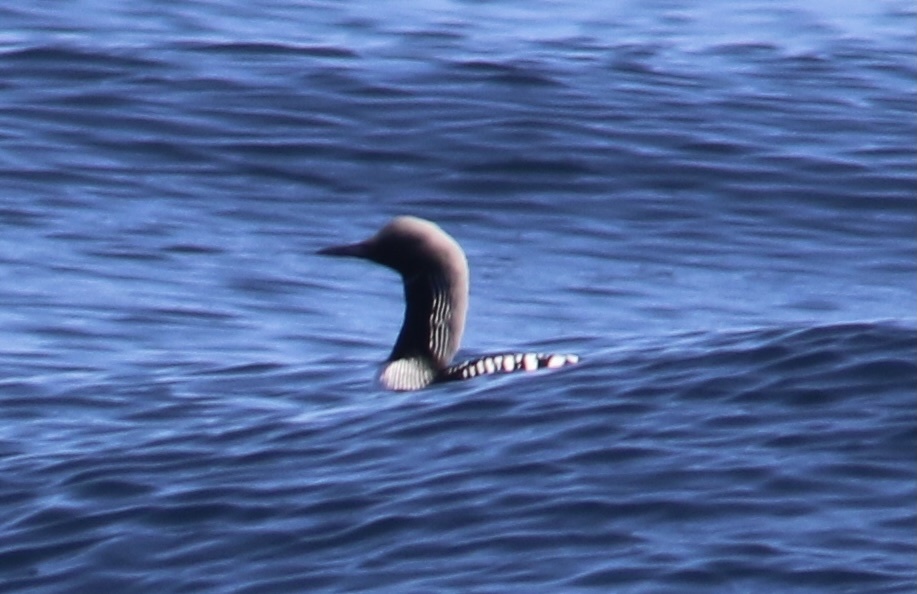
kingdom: Animalia
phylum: Chordata
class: Aves
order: Gaviiformes
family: Gaviidae
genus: Gavia
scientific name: Gavia pacifica
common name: Pacific loon
